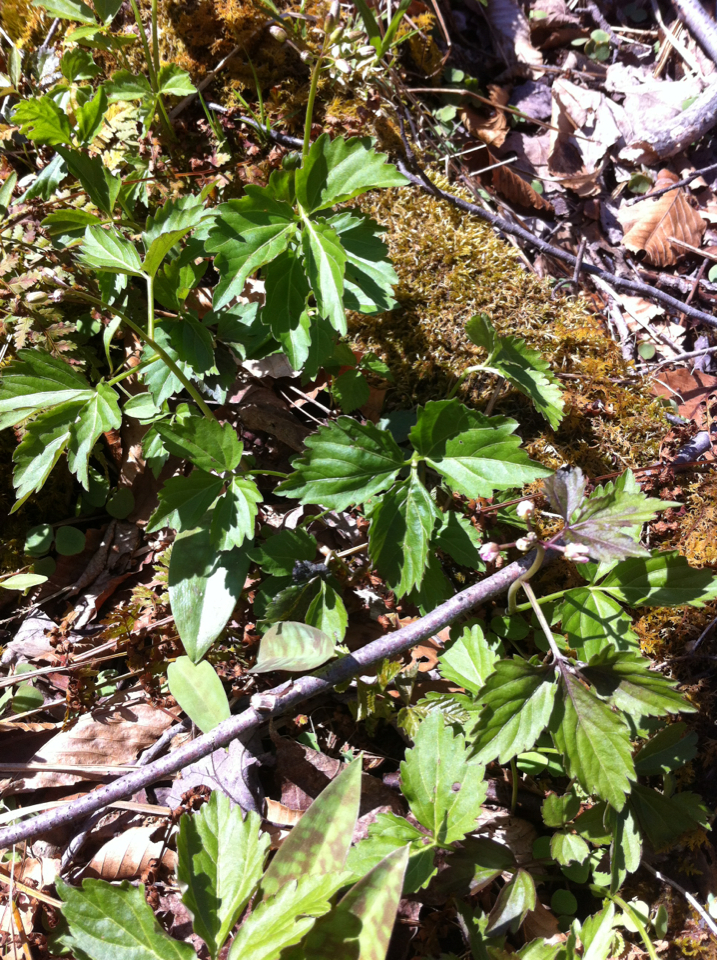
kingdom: Plantae
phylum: Tracheophyta
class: Magnoliopsida
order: Brassicales
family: Brassicaceae
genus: Cardamine
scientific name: Cardamine diphylla
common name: Broad-leaved toothwort
